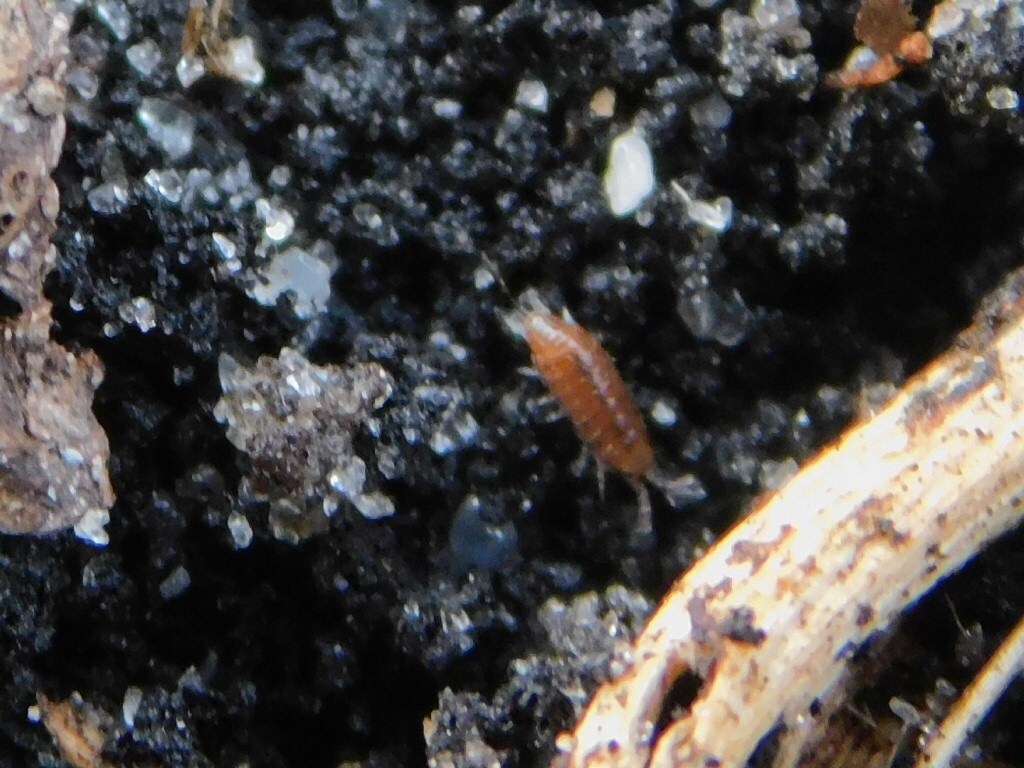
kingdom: Animalia
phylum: Arthropoda
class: Malacostraca
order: Isopoda
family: Philosciidae
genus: Floridoscia
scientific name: Floridoscia fusca
